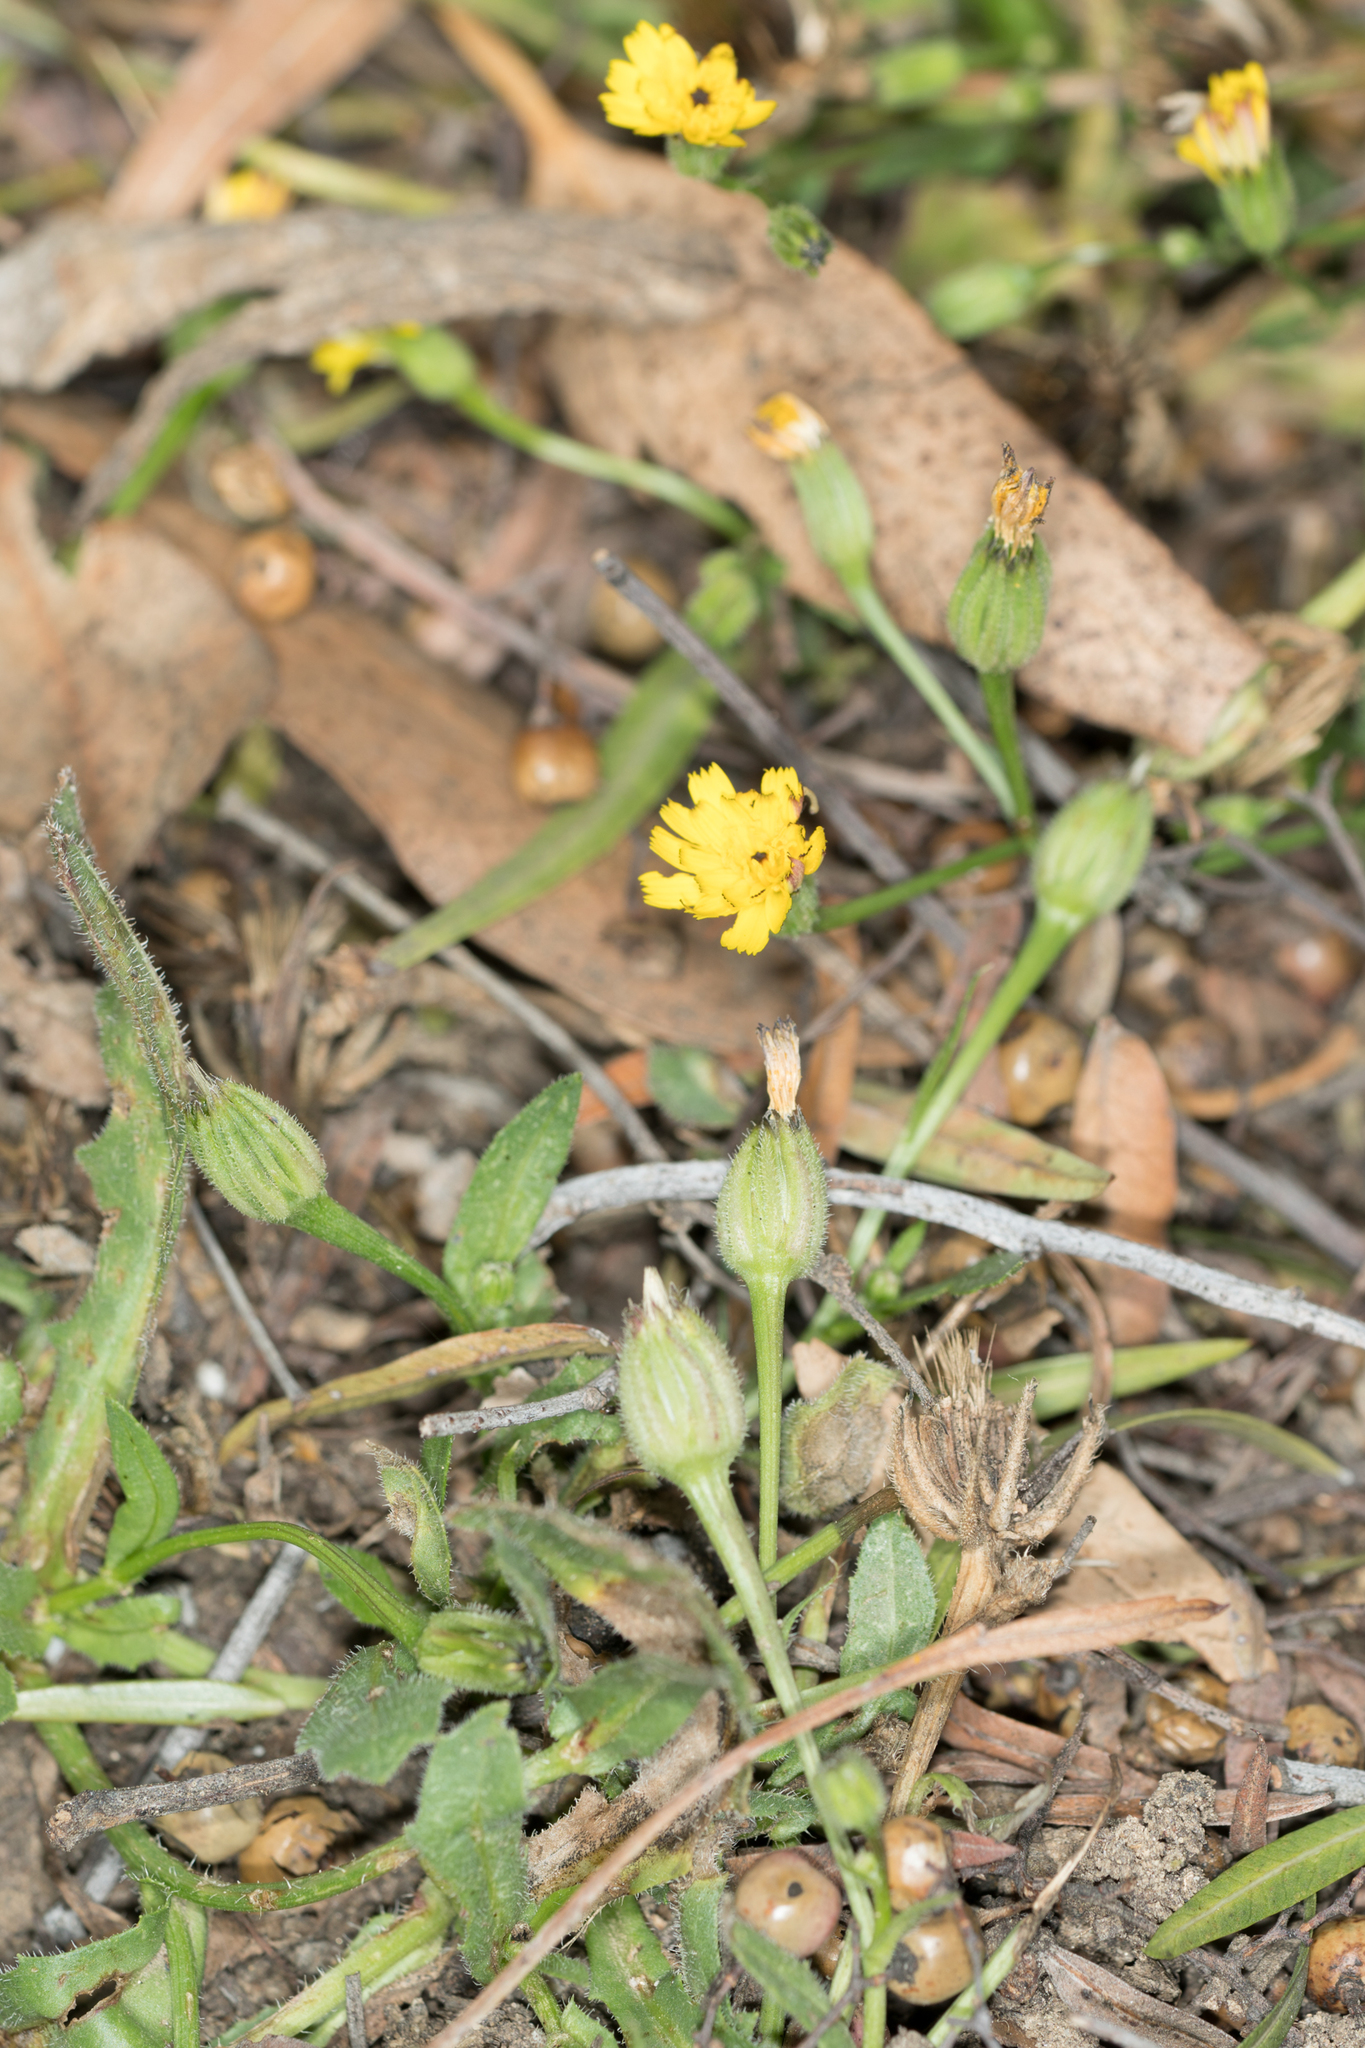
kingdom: Plantae
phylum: Tracheophyta
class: Magnoliopsida
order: Asterales
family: Asteraceae
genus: Hedypnois
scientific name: Hedypnois rhagadioloides
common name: Cretan weed
